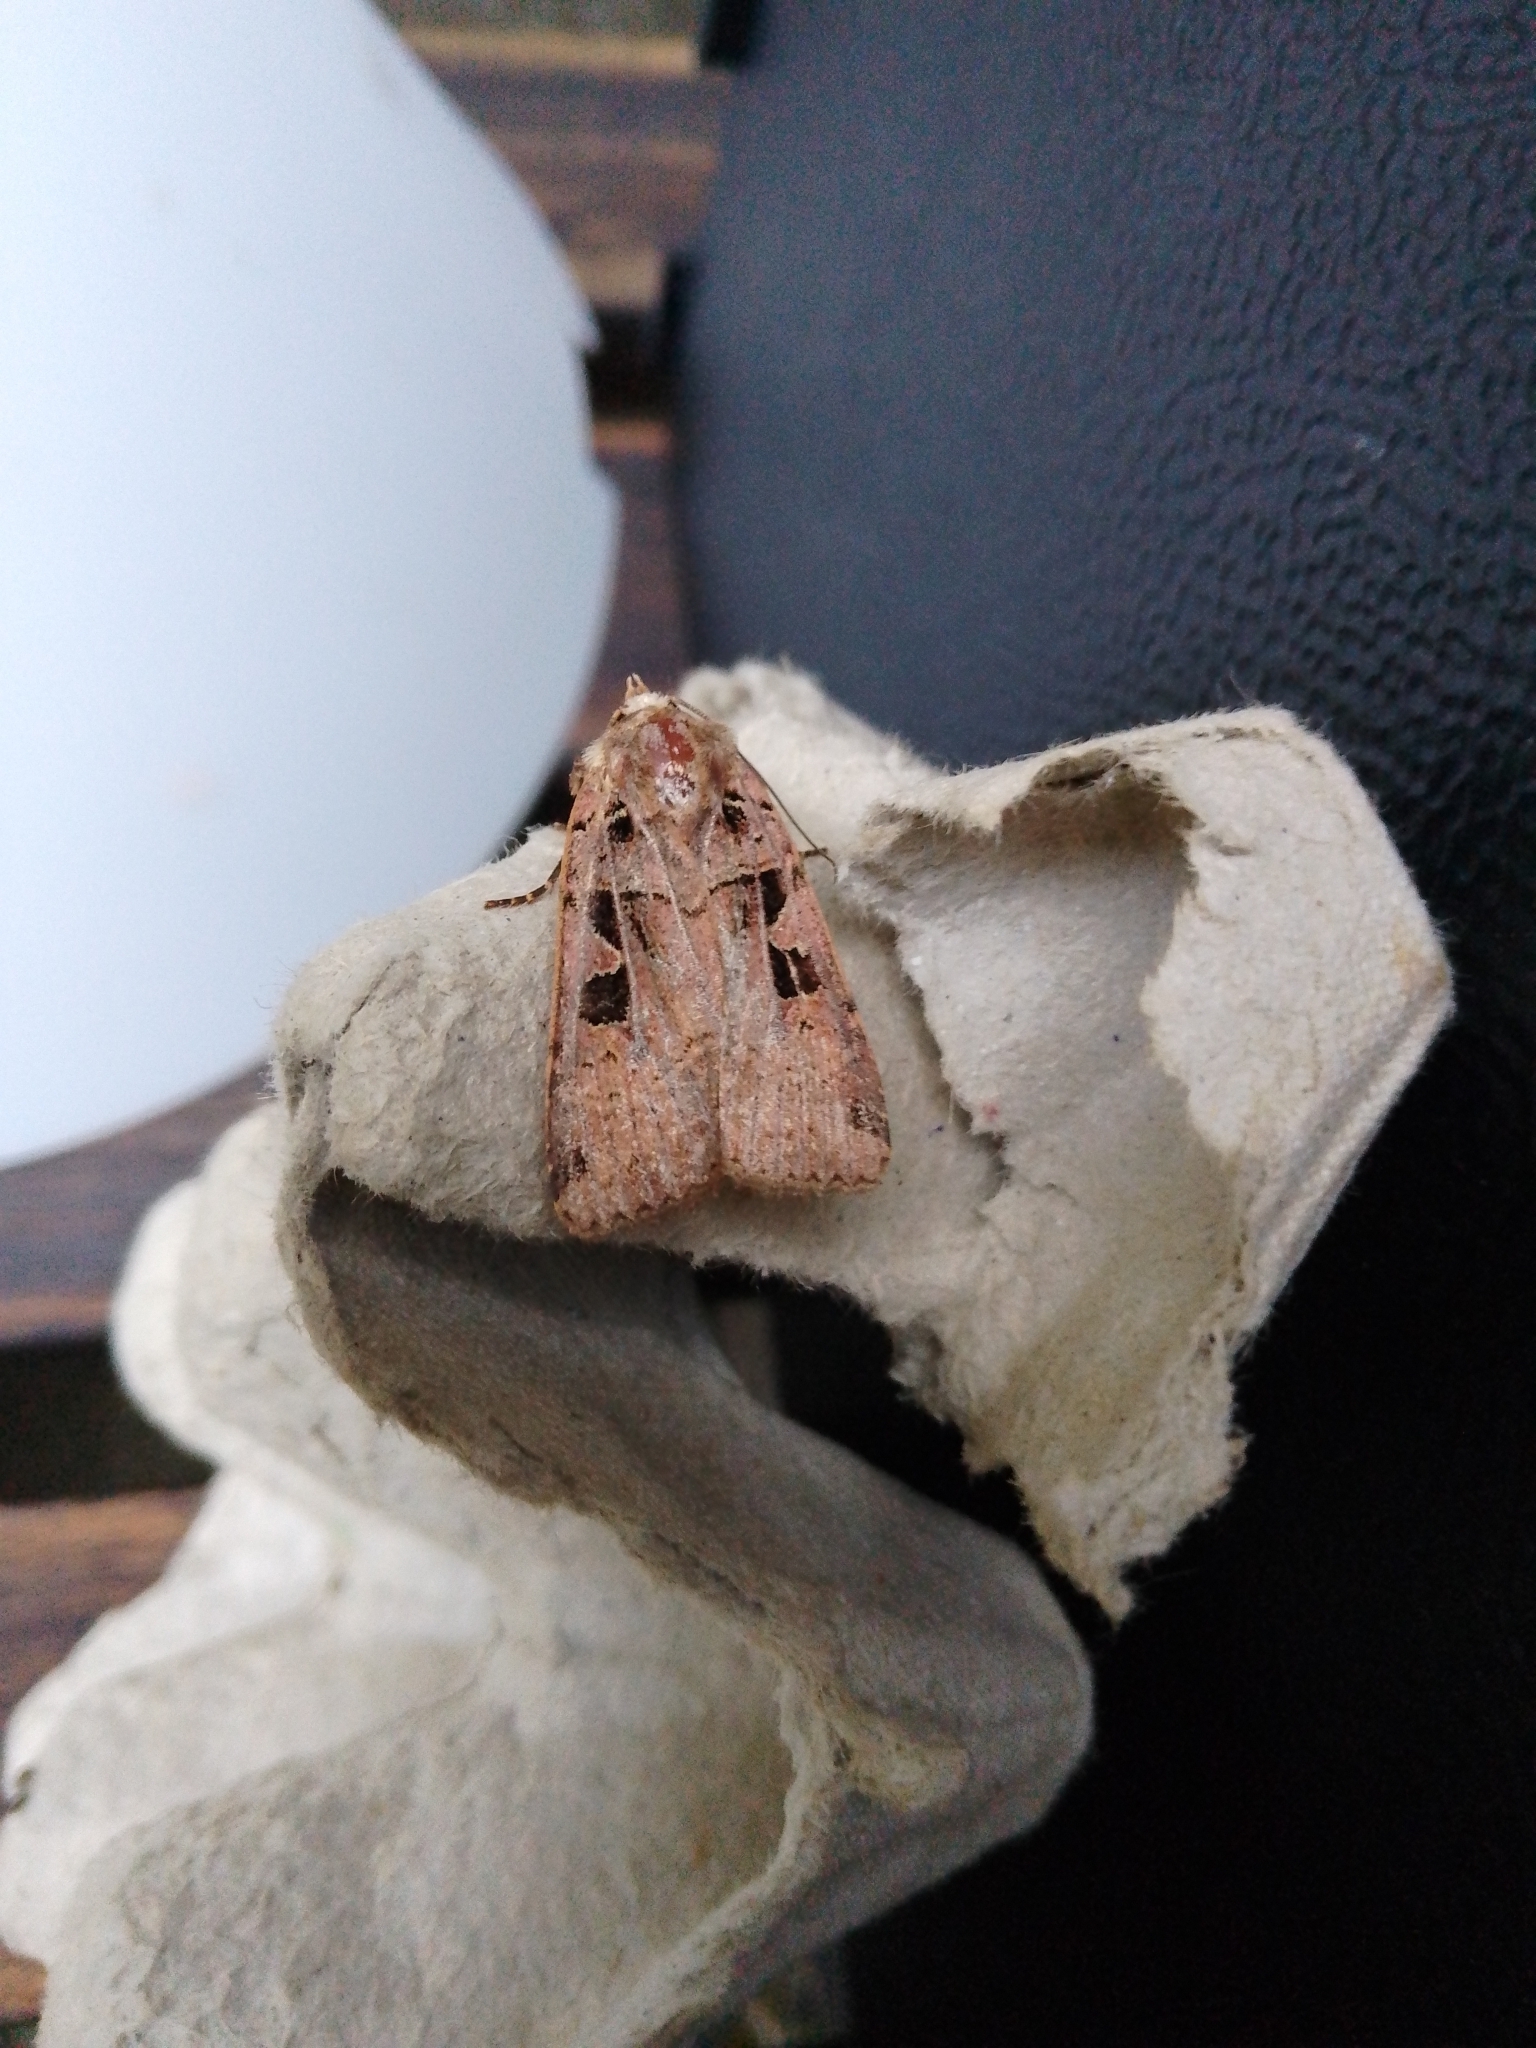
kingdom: Animalia
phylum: Arthropoda
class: Insecta
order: Lepidoptera
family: Noctuidae
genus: Xestia
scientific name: Xestia triangulum
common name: Double square-spot
